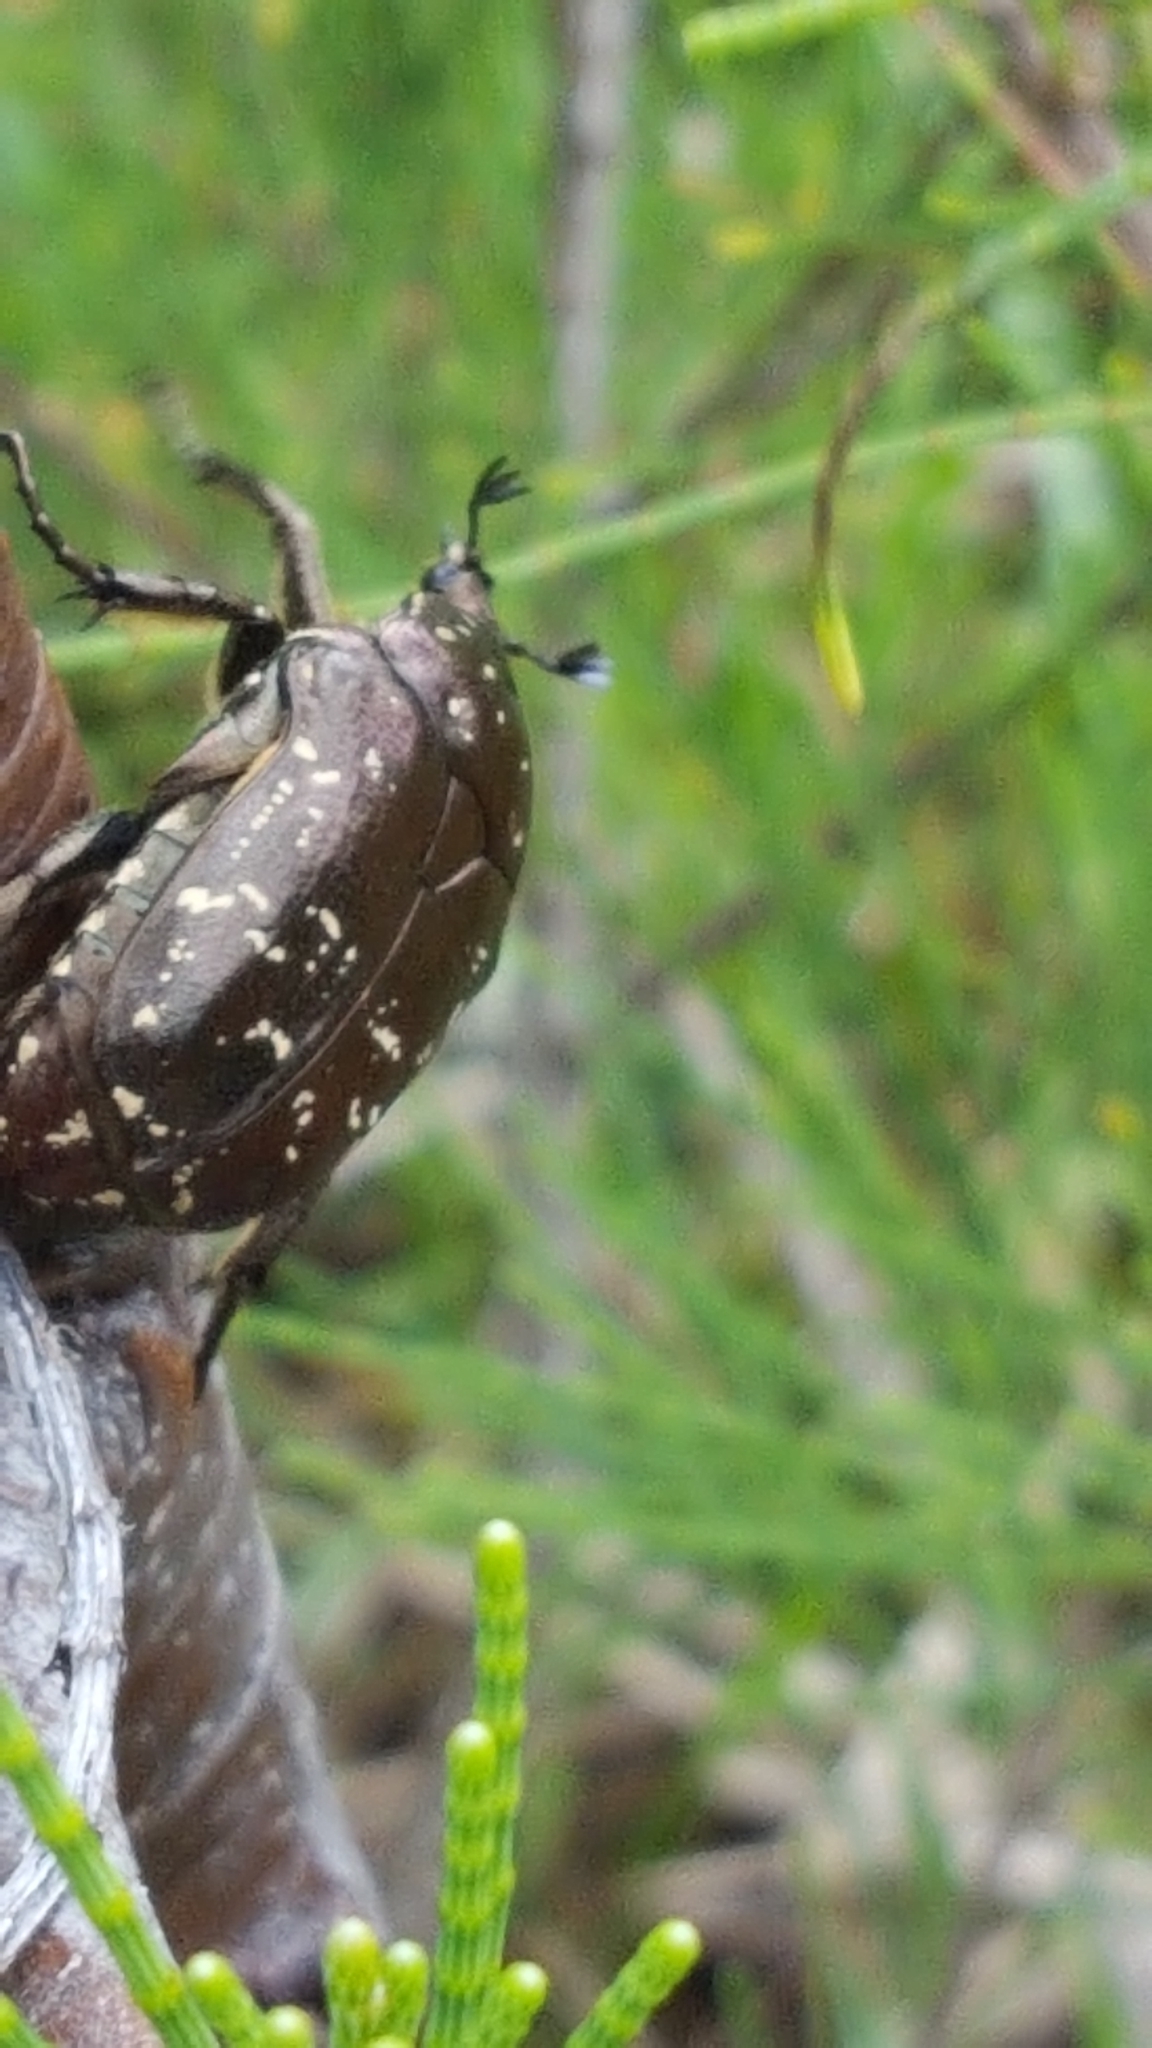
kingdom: Animalia
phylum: Arthropoda
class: Insecta
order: Coleoptera
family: Scarabaeidae
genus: Protaetia
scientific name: Protaetia orientalis
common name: Oriental flower beetle
